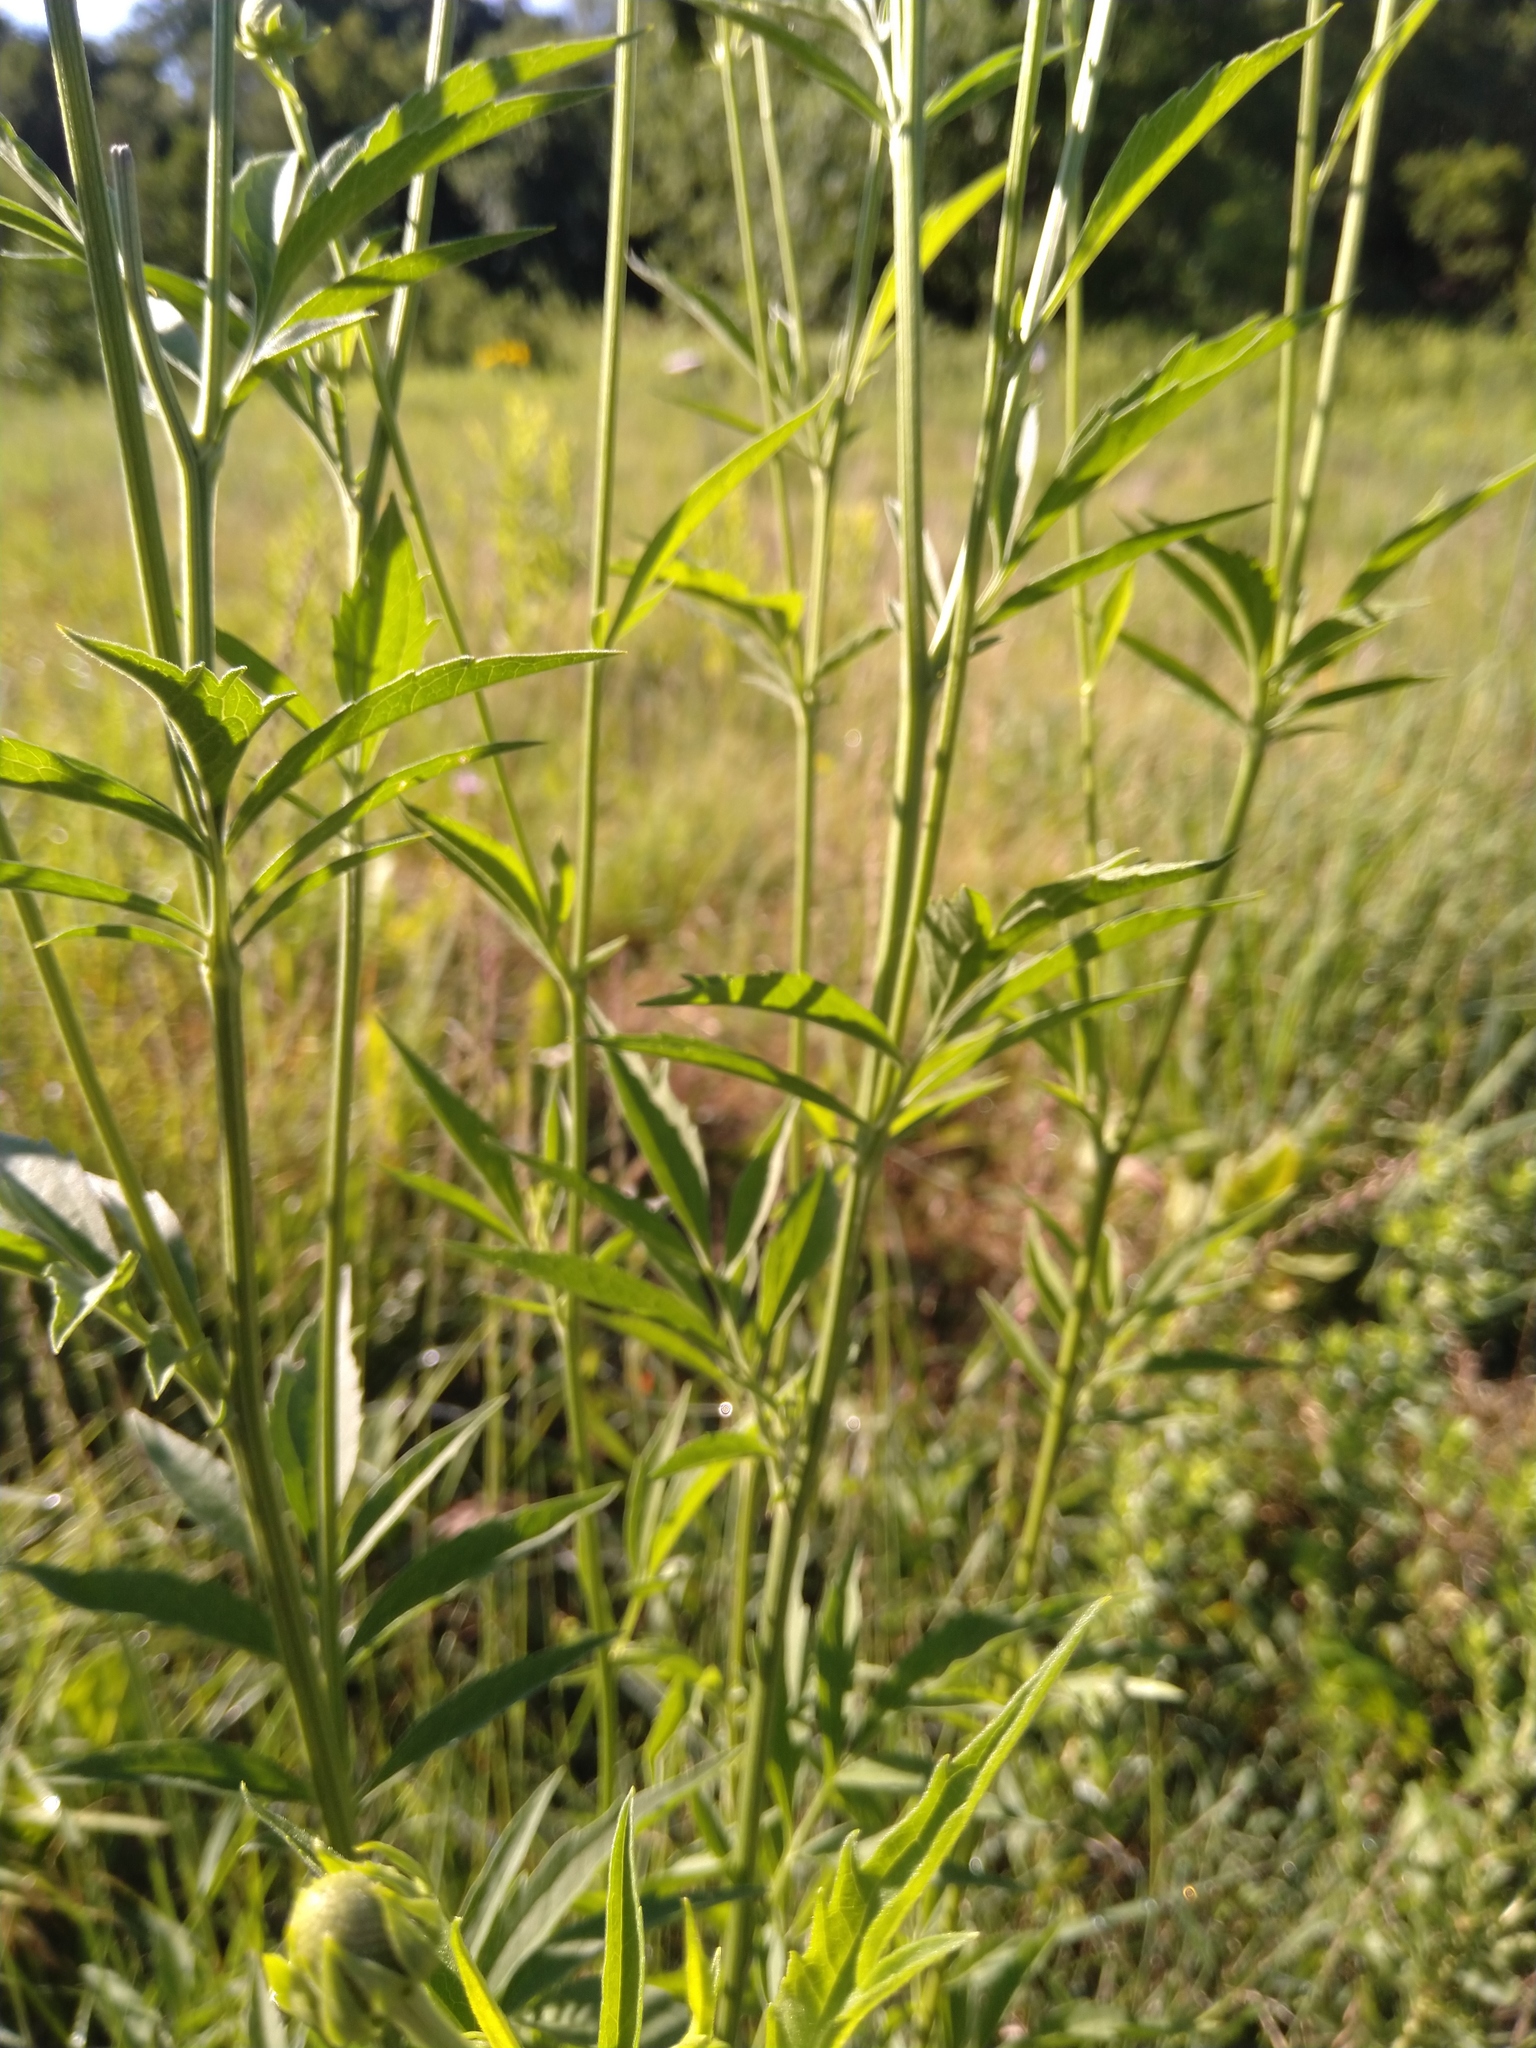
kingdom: Plantae
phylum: Tracheophyta
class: Magnoliopsida
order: Asterales
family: Asteraceae
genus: Ratibida
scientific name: Ratibida pinnata
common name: Drooping prairie-coneflower
